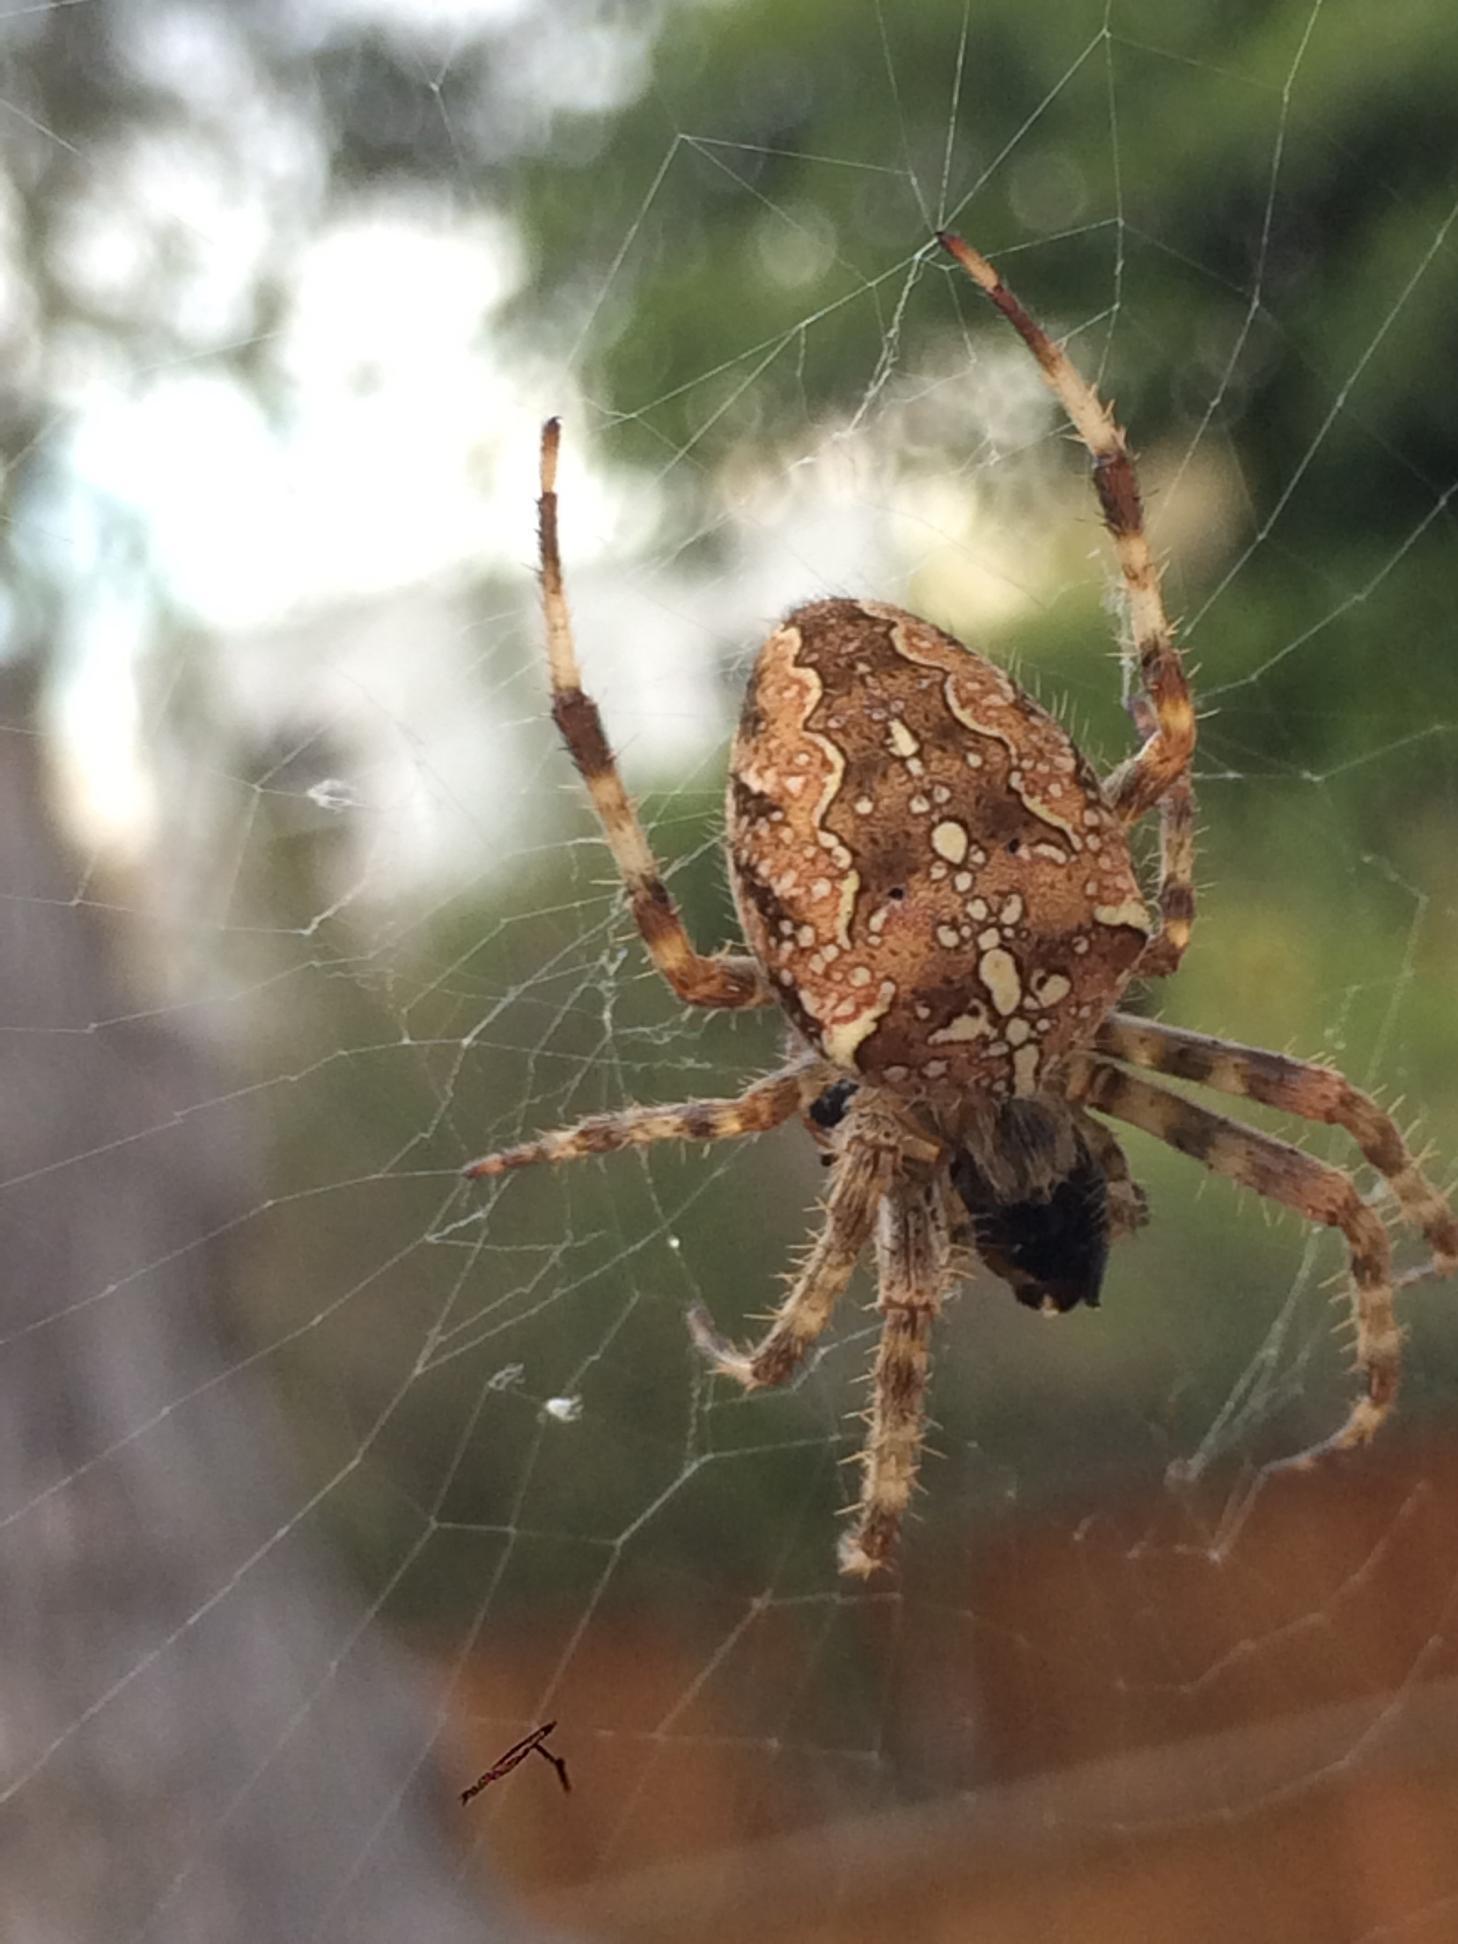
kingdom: Animalia
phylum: Arthropoda
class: Arachnida
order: Araneae
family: Araneidae
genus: Araneus
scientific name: Araneus diadematus
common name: Cross orbweaver
